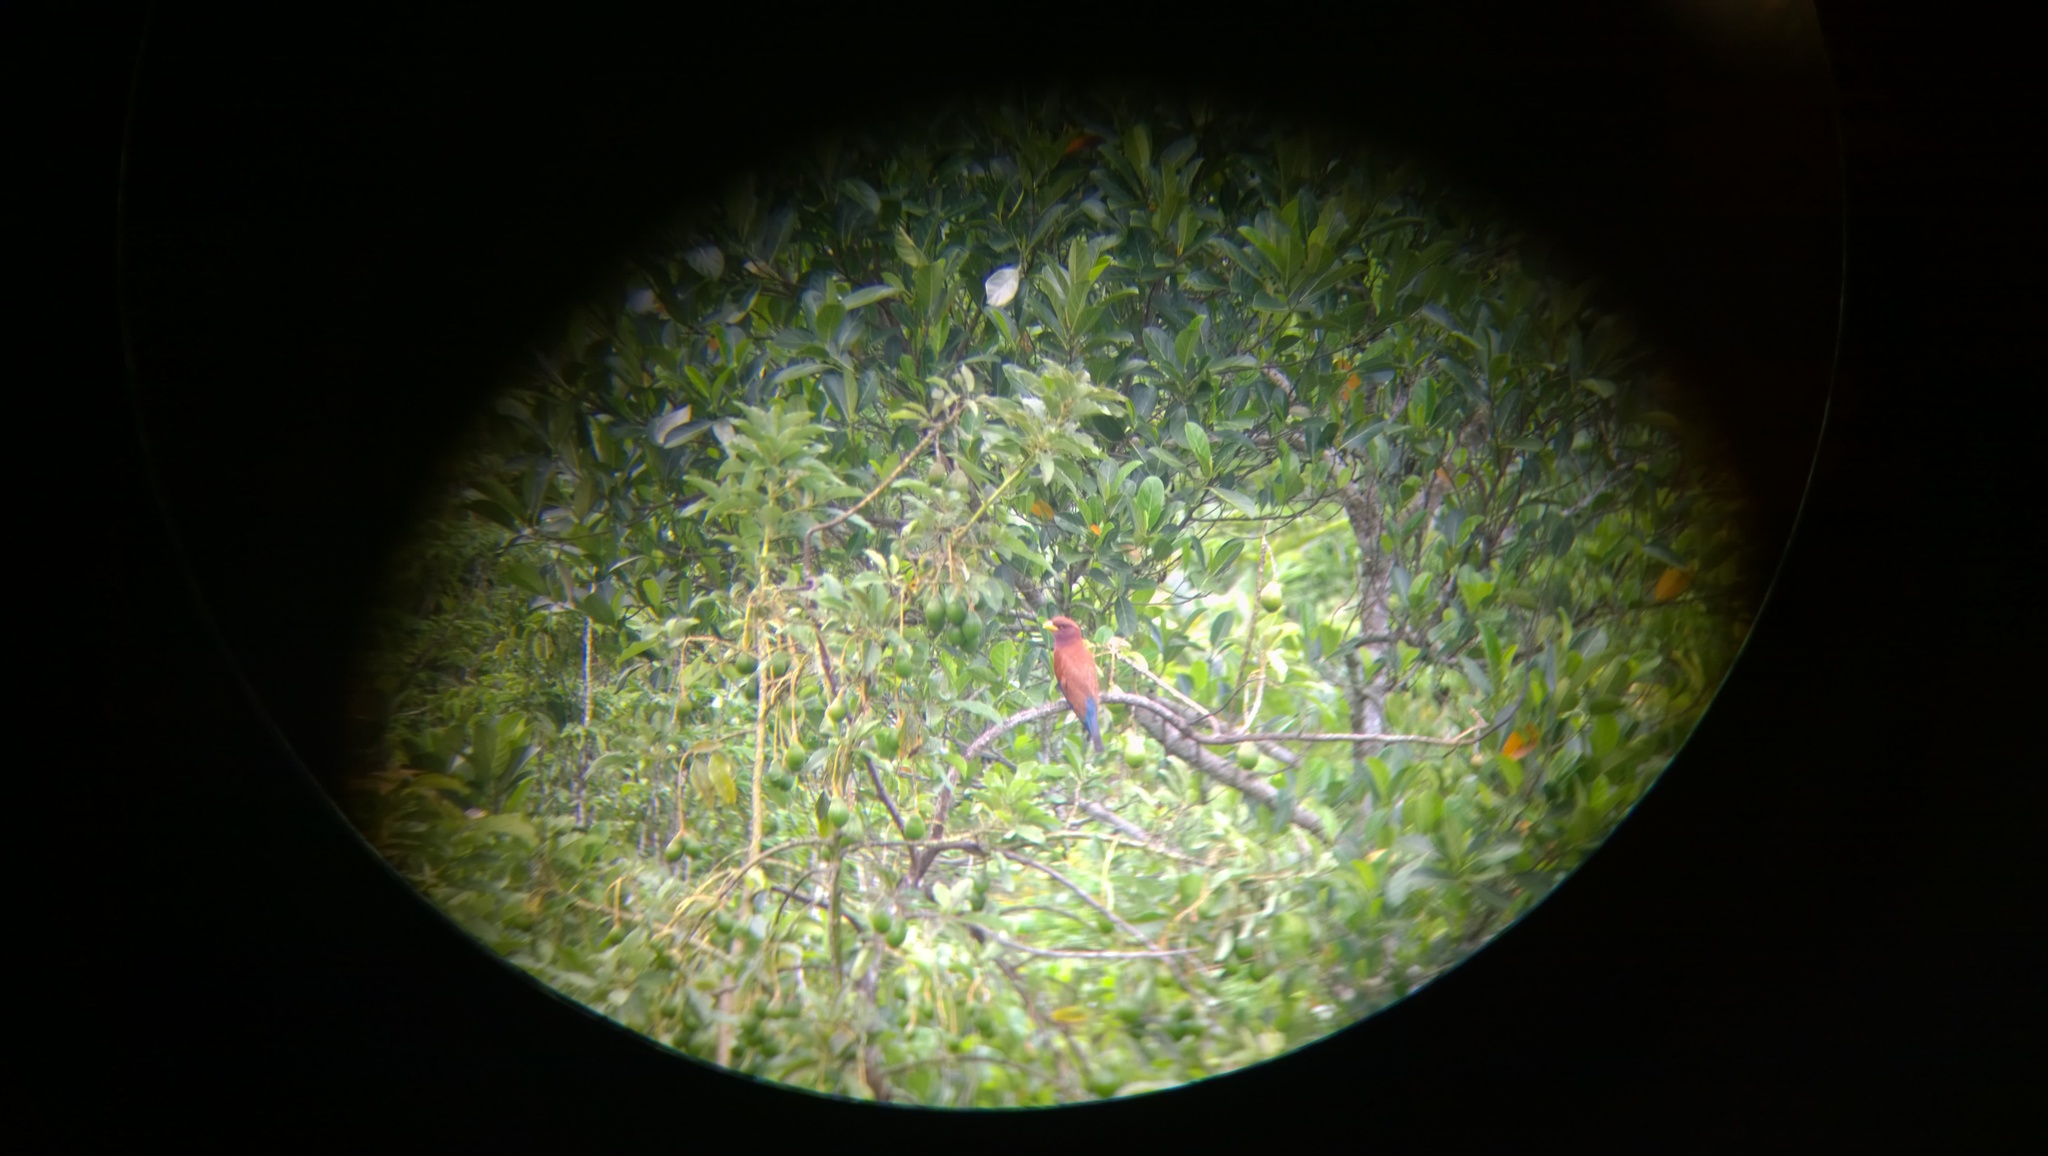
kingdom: Animalia
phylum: Chordata
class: Aves
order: Coraciiformes
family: Coraciidae
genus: Eurystomus
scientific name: Eurystomus glaucurus
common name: Broad-billed roller
